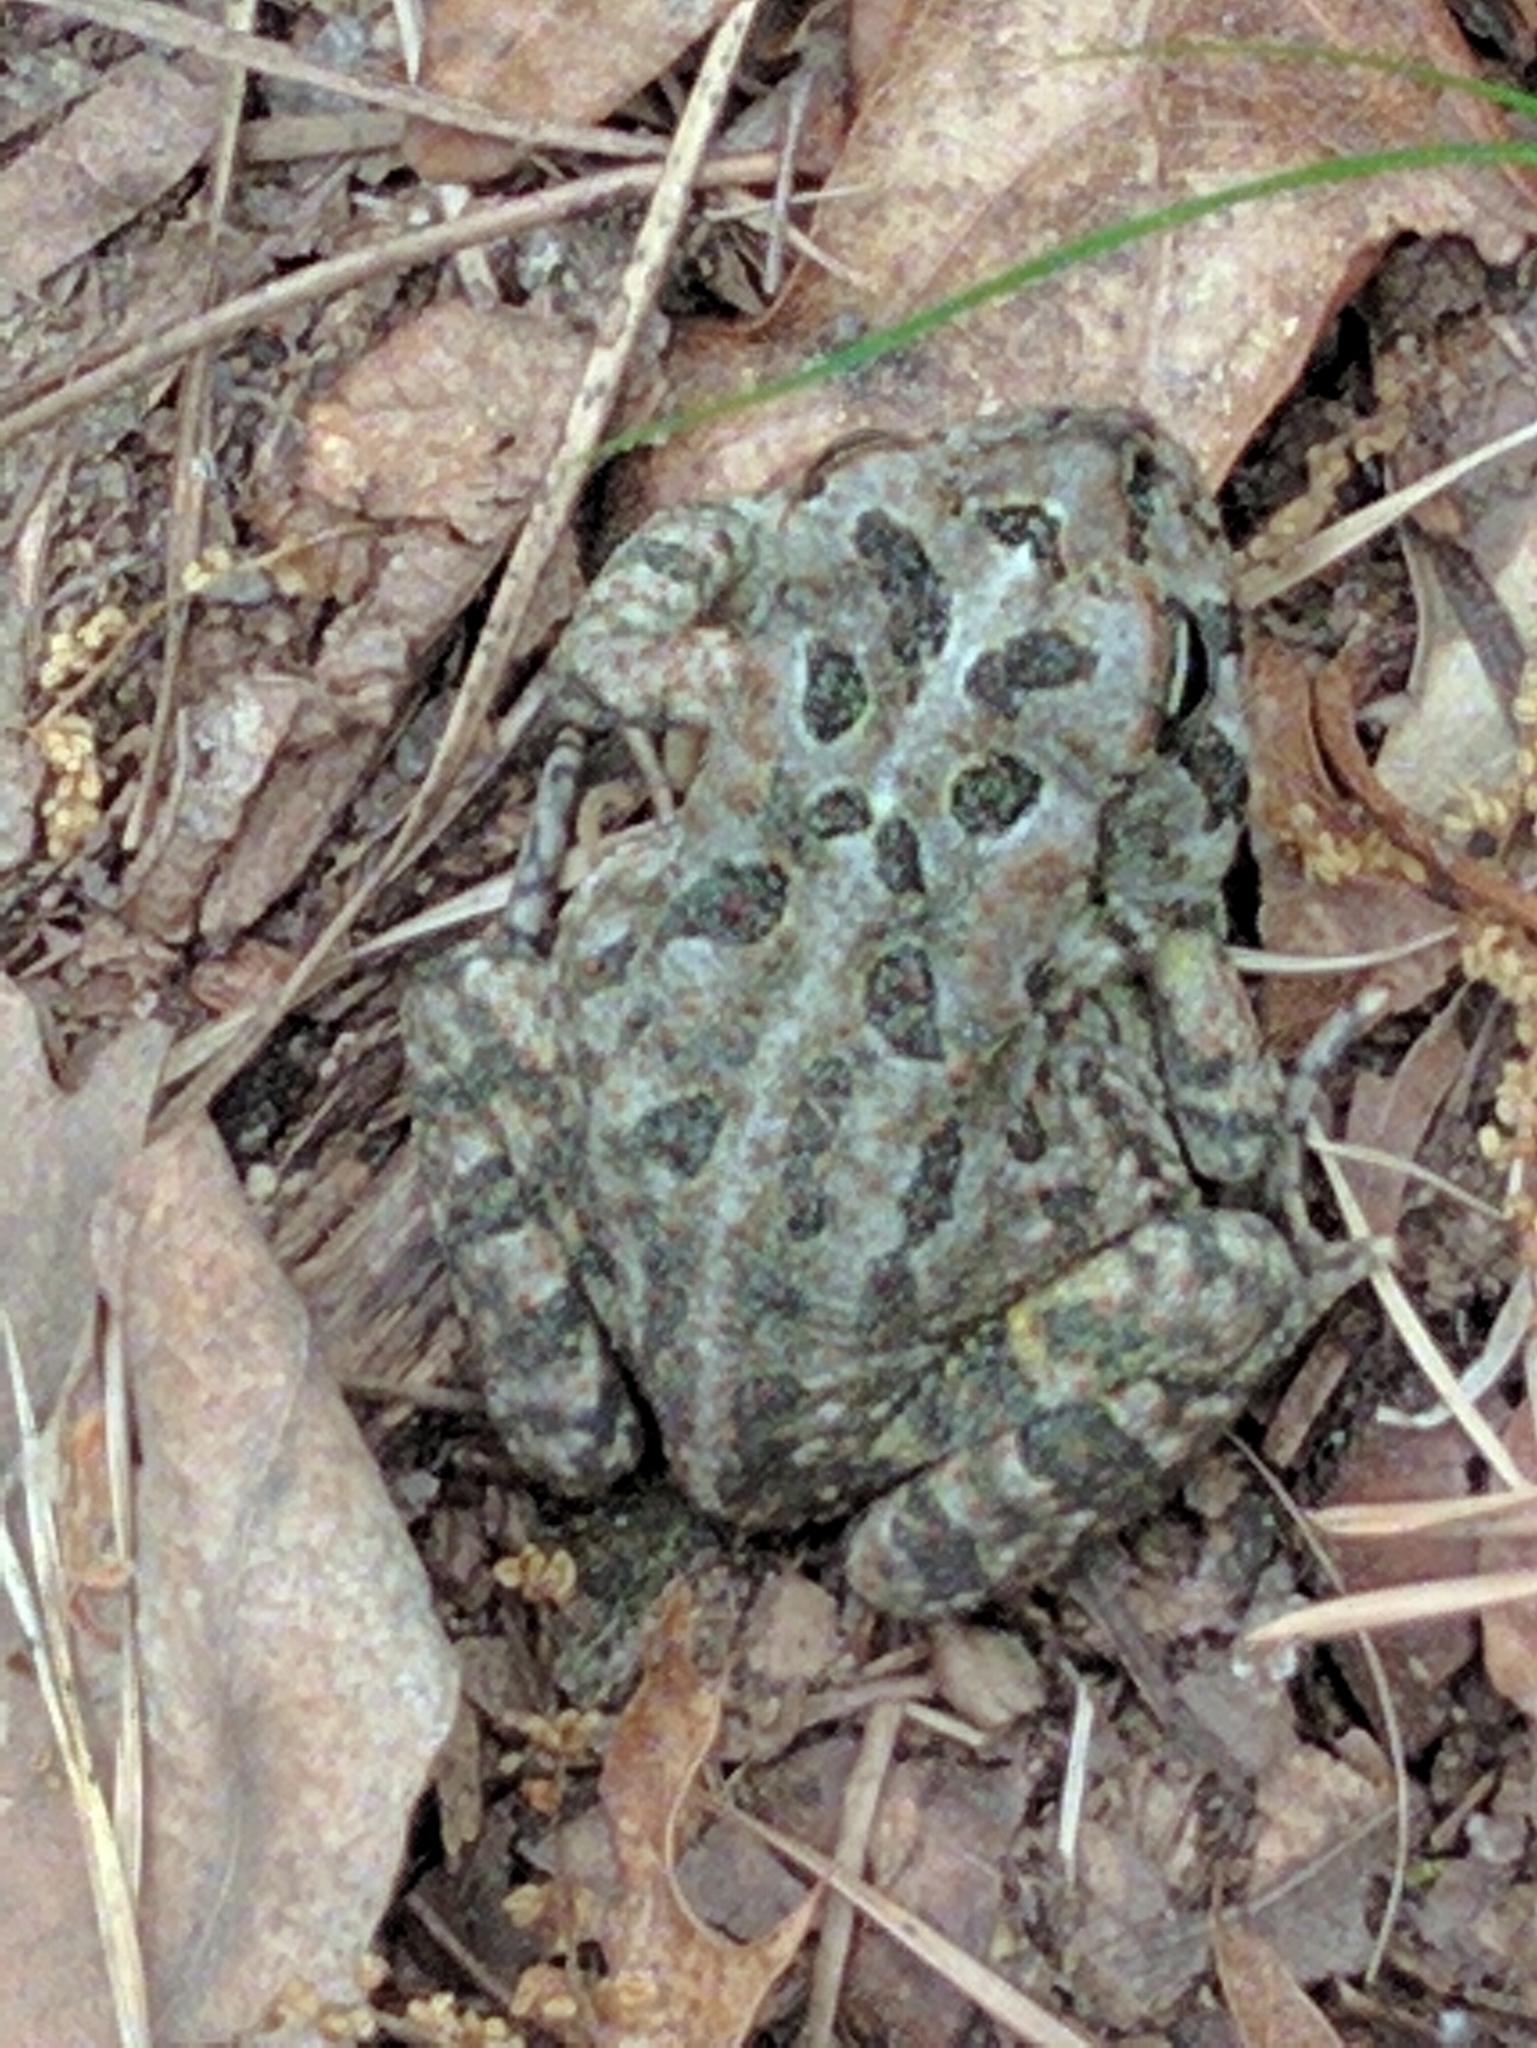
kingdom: Animalia
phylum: Chordata
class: Amphibia
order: Anura
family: Bufonidae
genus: Anaxyrus
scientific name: Anaxyrus fowleri
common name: Fowler's toad
